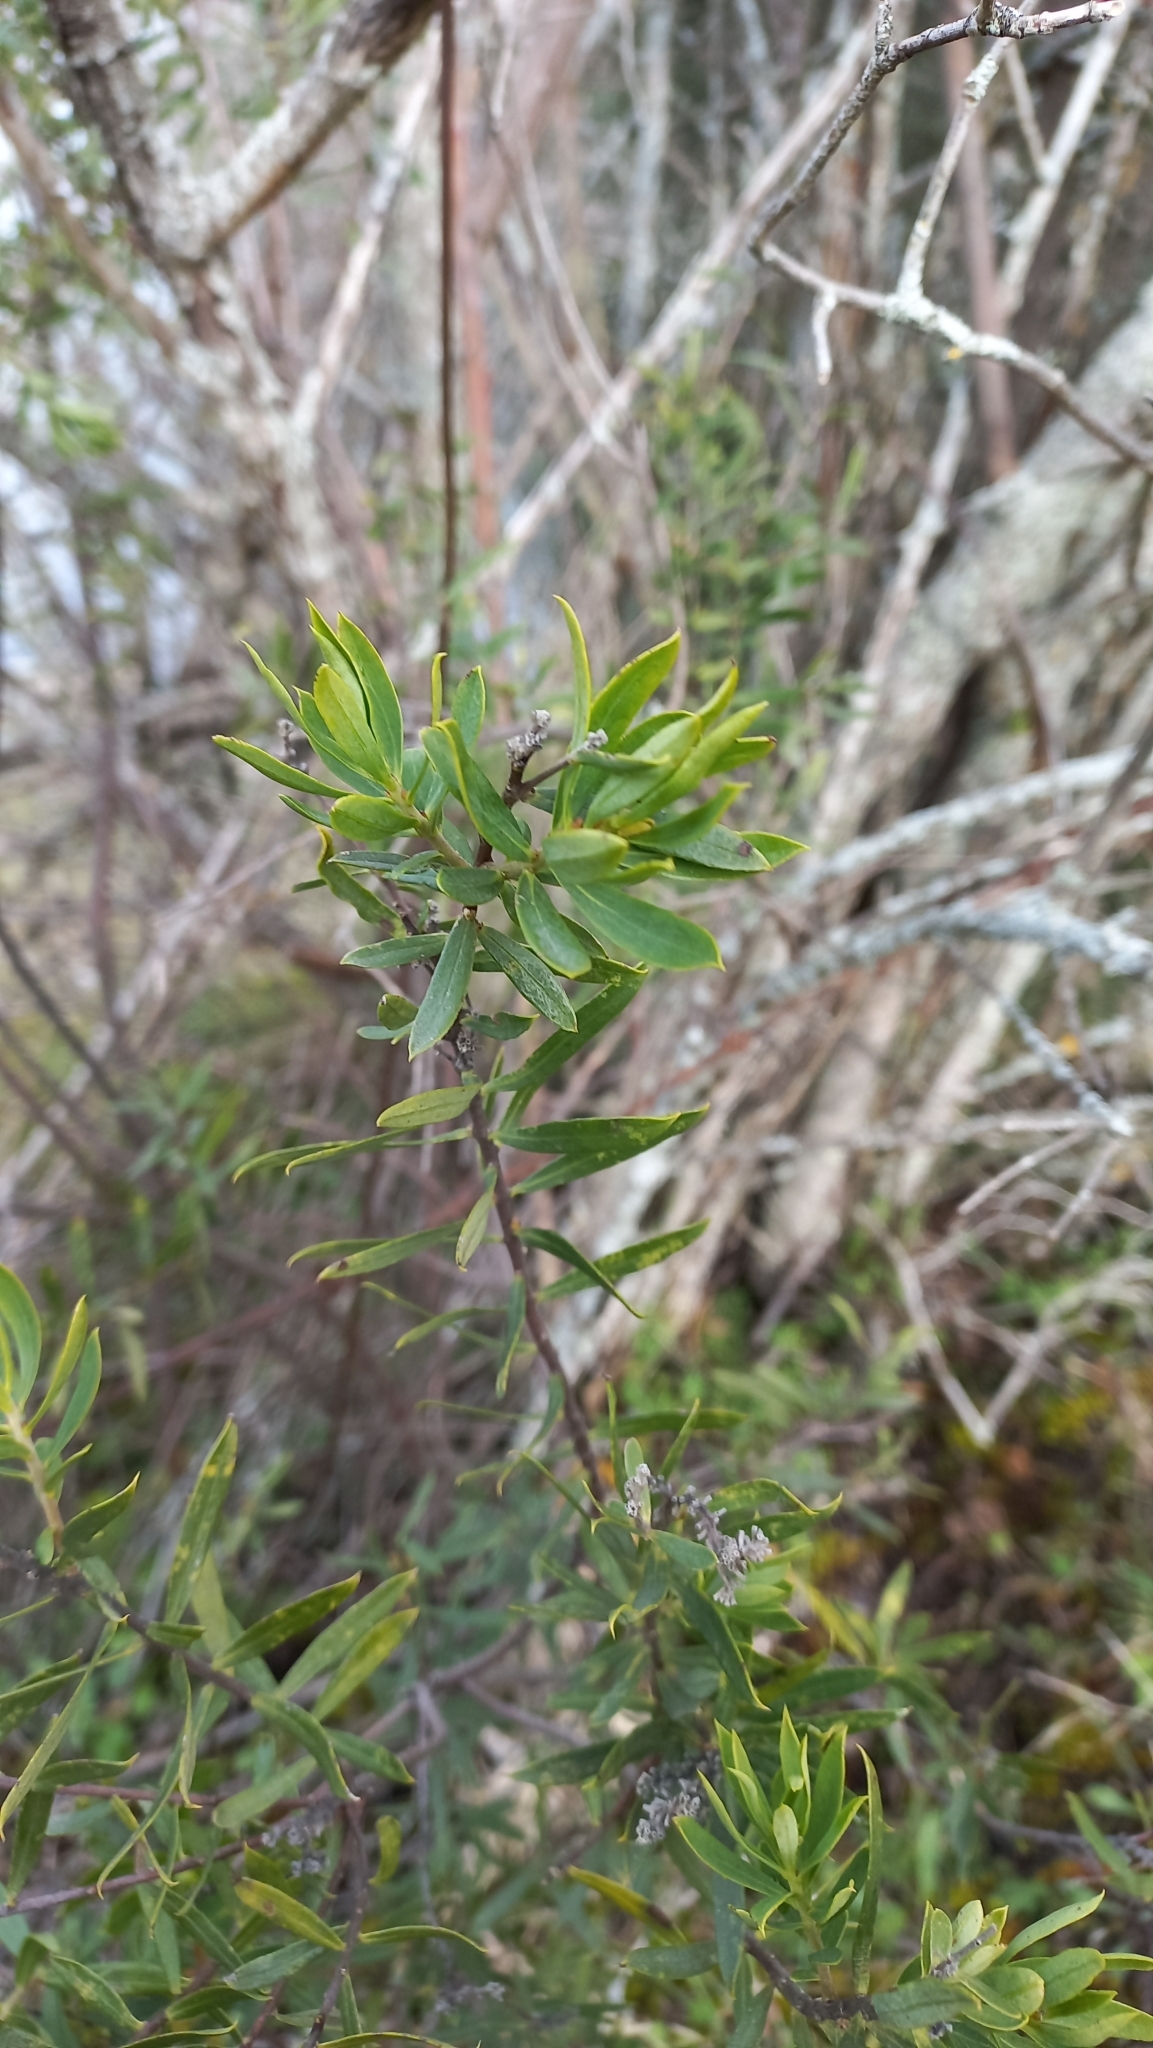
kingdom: Plantae
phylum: Tracheophyta
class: Magnoliopsida
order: Malvales
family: Thymelaeaceae
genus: Daphne
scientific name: Daphne gnidium
